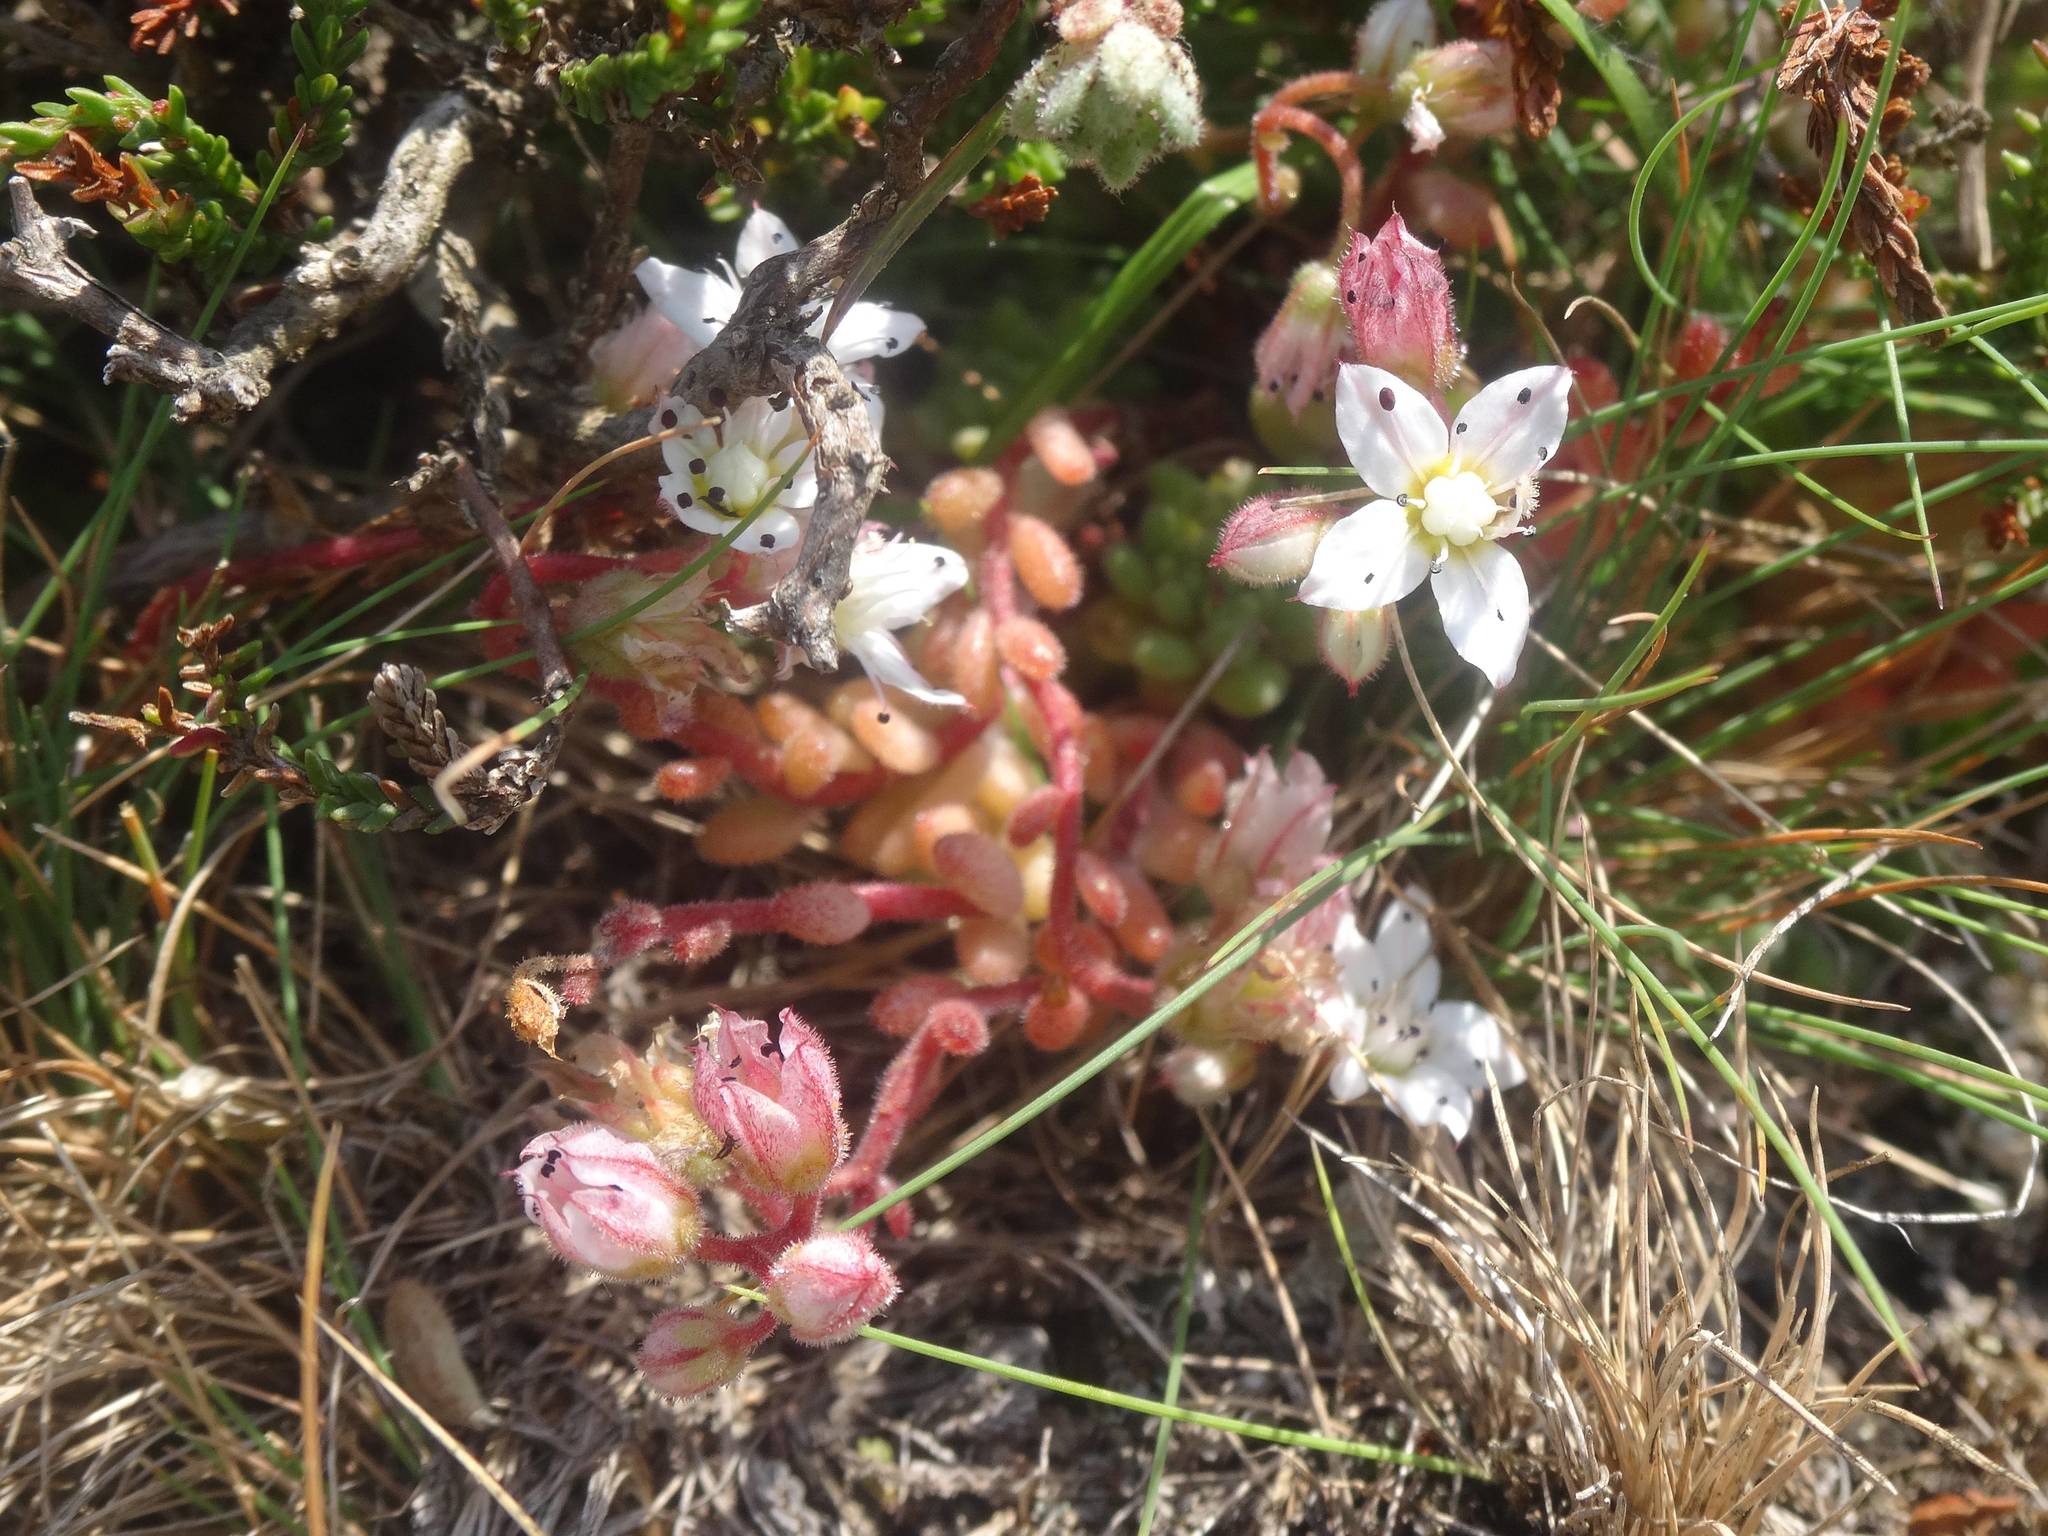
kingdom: Plantae
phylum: Tracheophyta
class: Magnoliopsida
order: Saxifragales
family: Crassulaceae
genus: Sedum
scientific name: Sedum hirsutum
